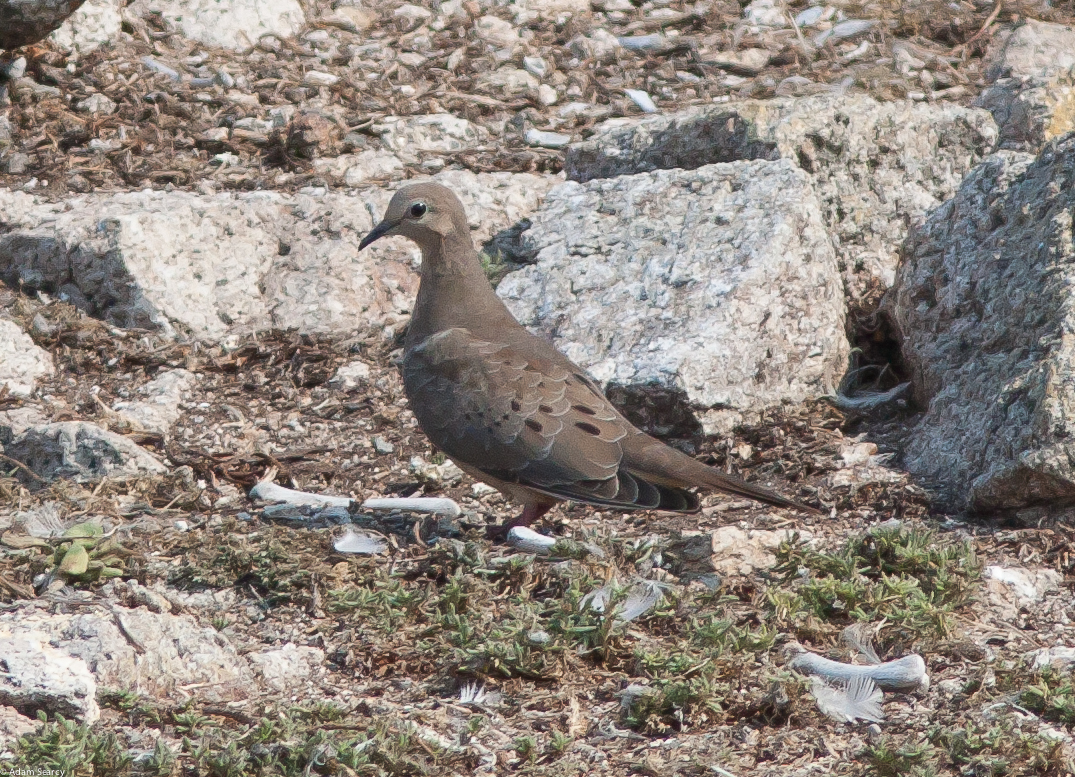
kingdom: Animalia
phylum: Chordata
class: Aves
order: Columbiformes
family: Columbidae
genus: Zenaida
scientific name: Zenaida macroura
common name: Mourning dove
